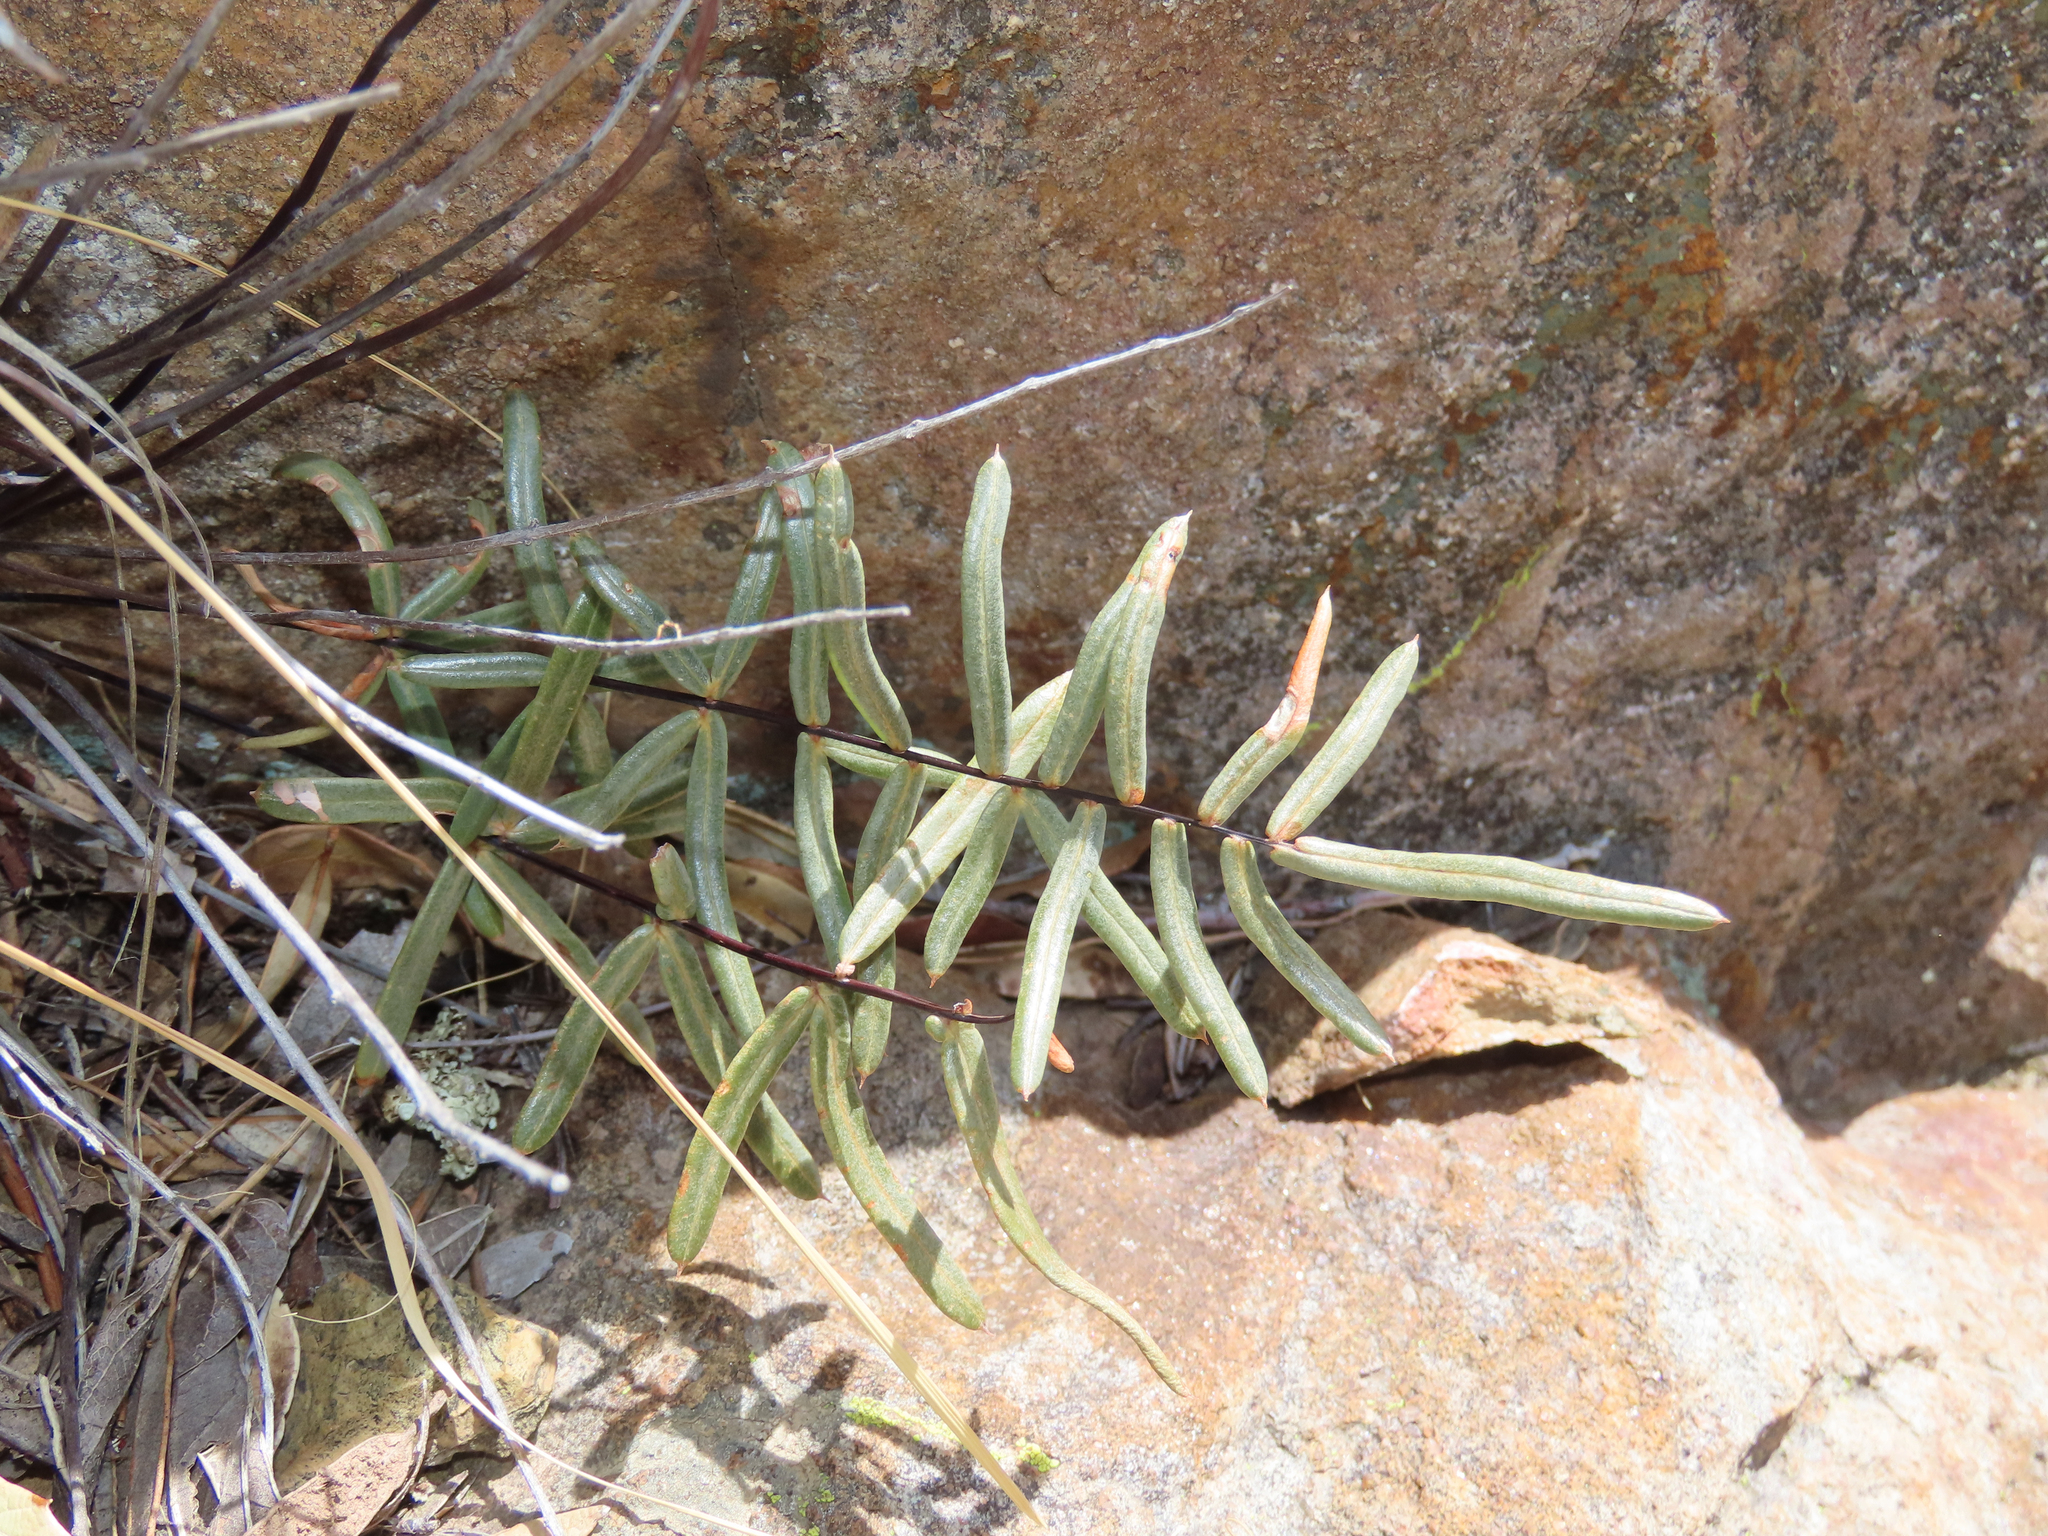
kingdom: Plantae
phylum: Tracheophyta
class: Polypodiopsida
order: Polypodiales
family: Pteridaceae
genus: Pellaea
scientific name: Pellaea ternifolia
